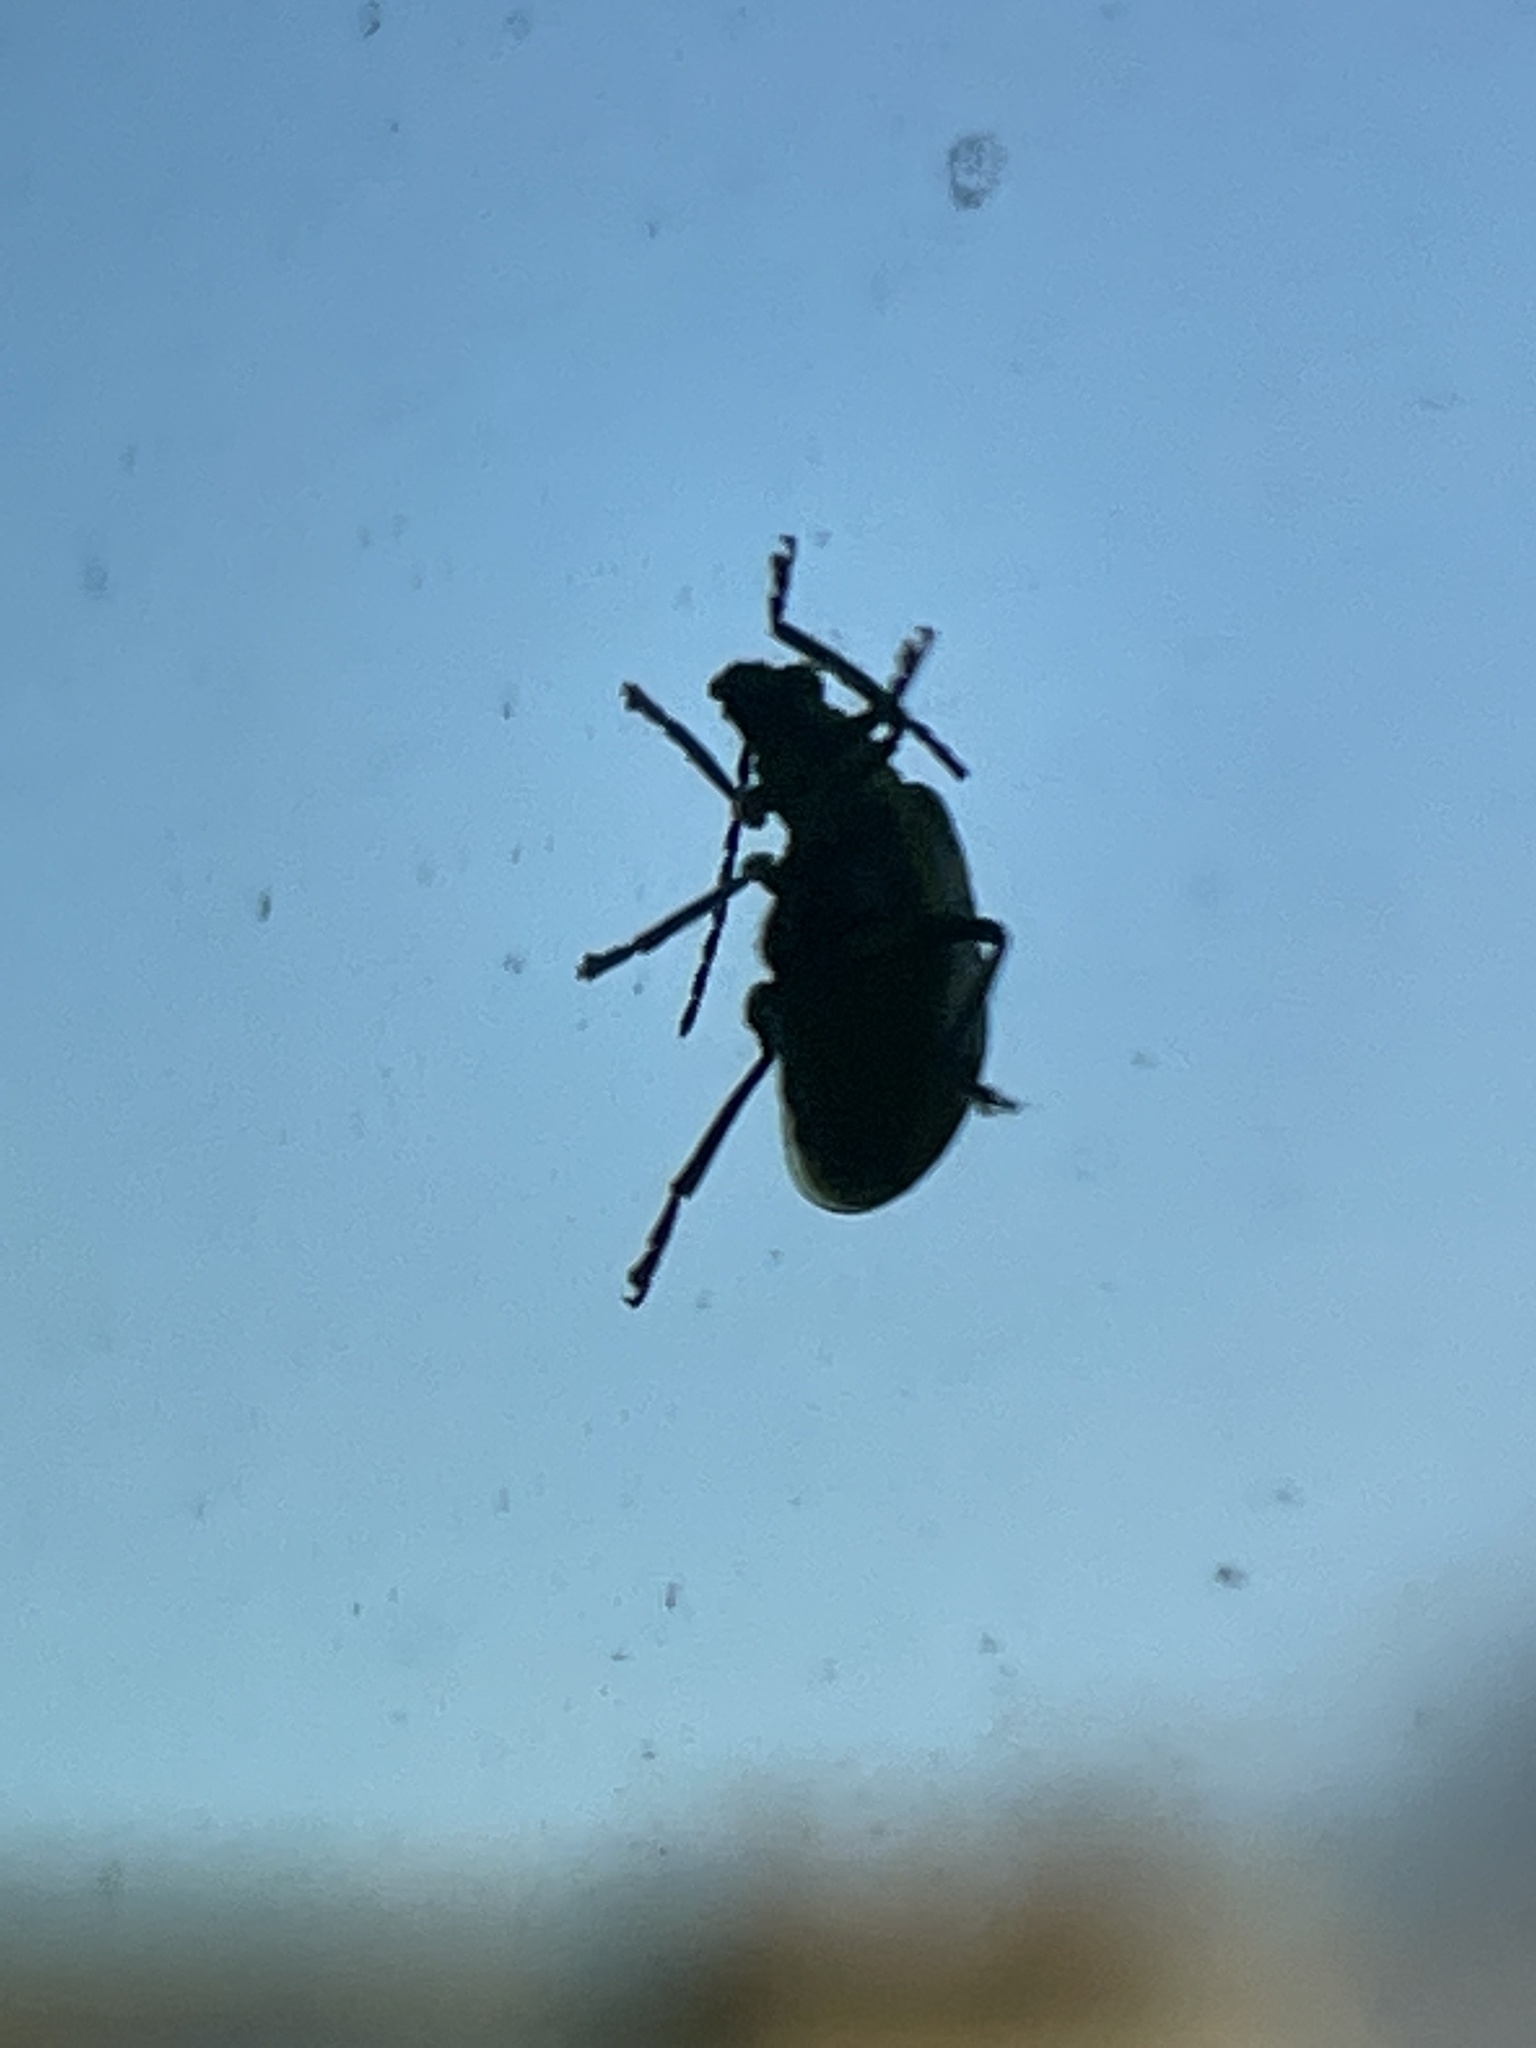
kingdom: Animalia
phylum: Arthropoda
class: Insecta
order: Coleoptera
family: Chrysomelidae
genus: Diabrotica
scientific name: Diabrotica undecimpunctata
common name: Spotted cucumber beetle
